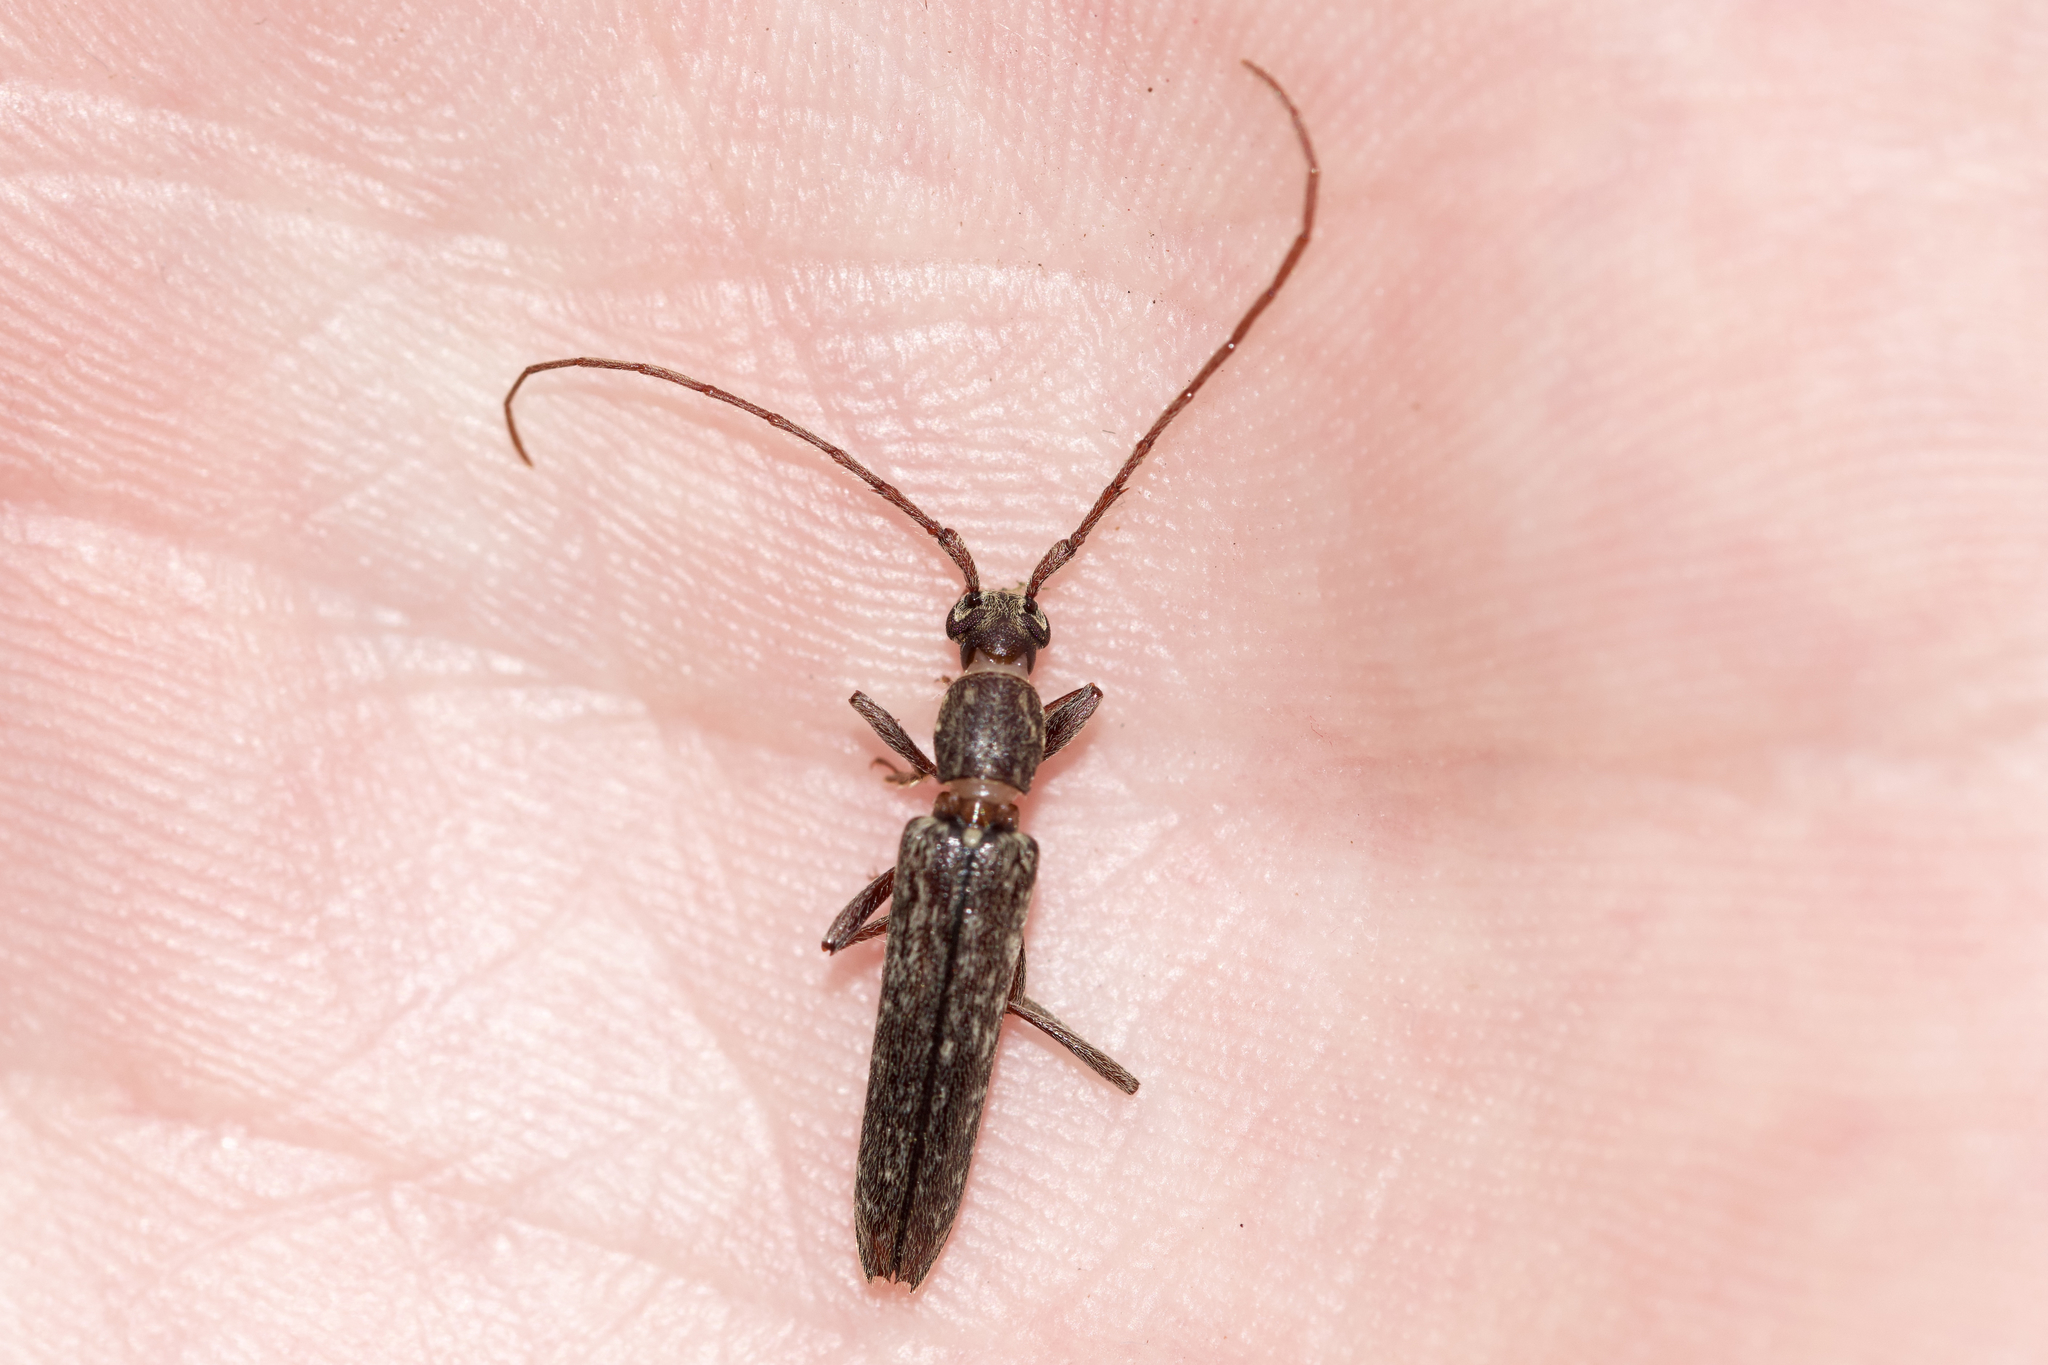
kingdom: Animalia
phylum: Arthropoda
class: Insecta
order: Coleoptera
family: Cerambycidae
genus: Anelaphus
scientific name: Anelaphus villosus
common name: Twig pruner
